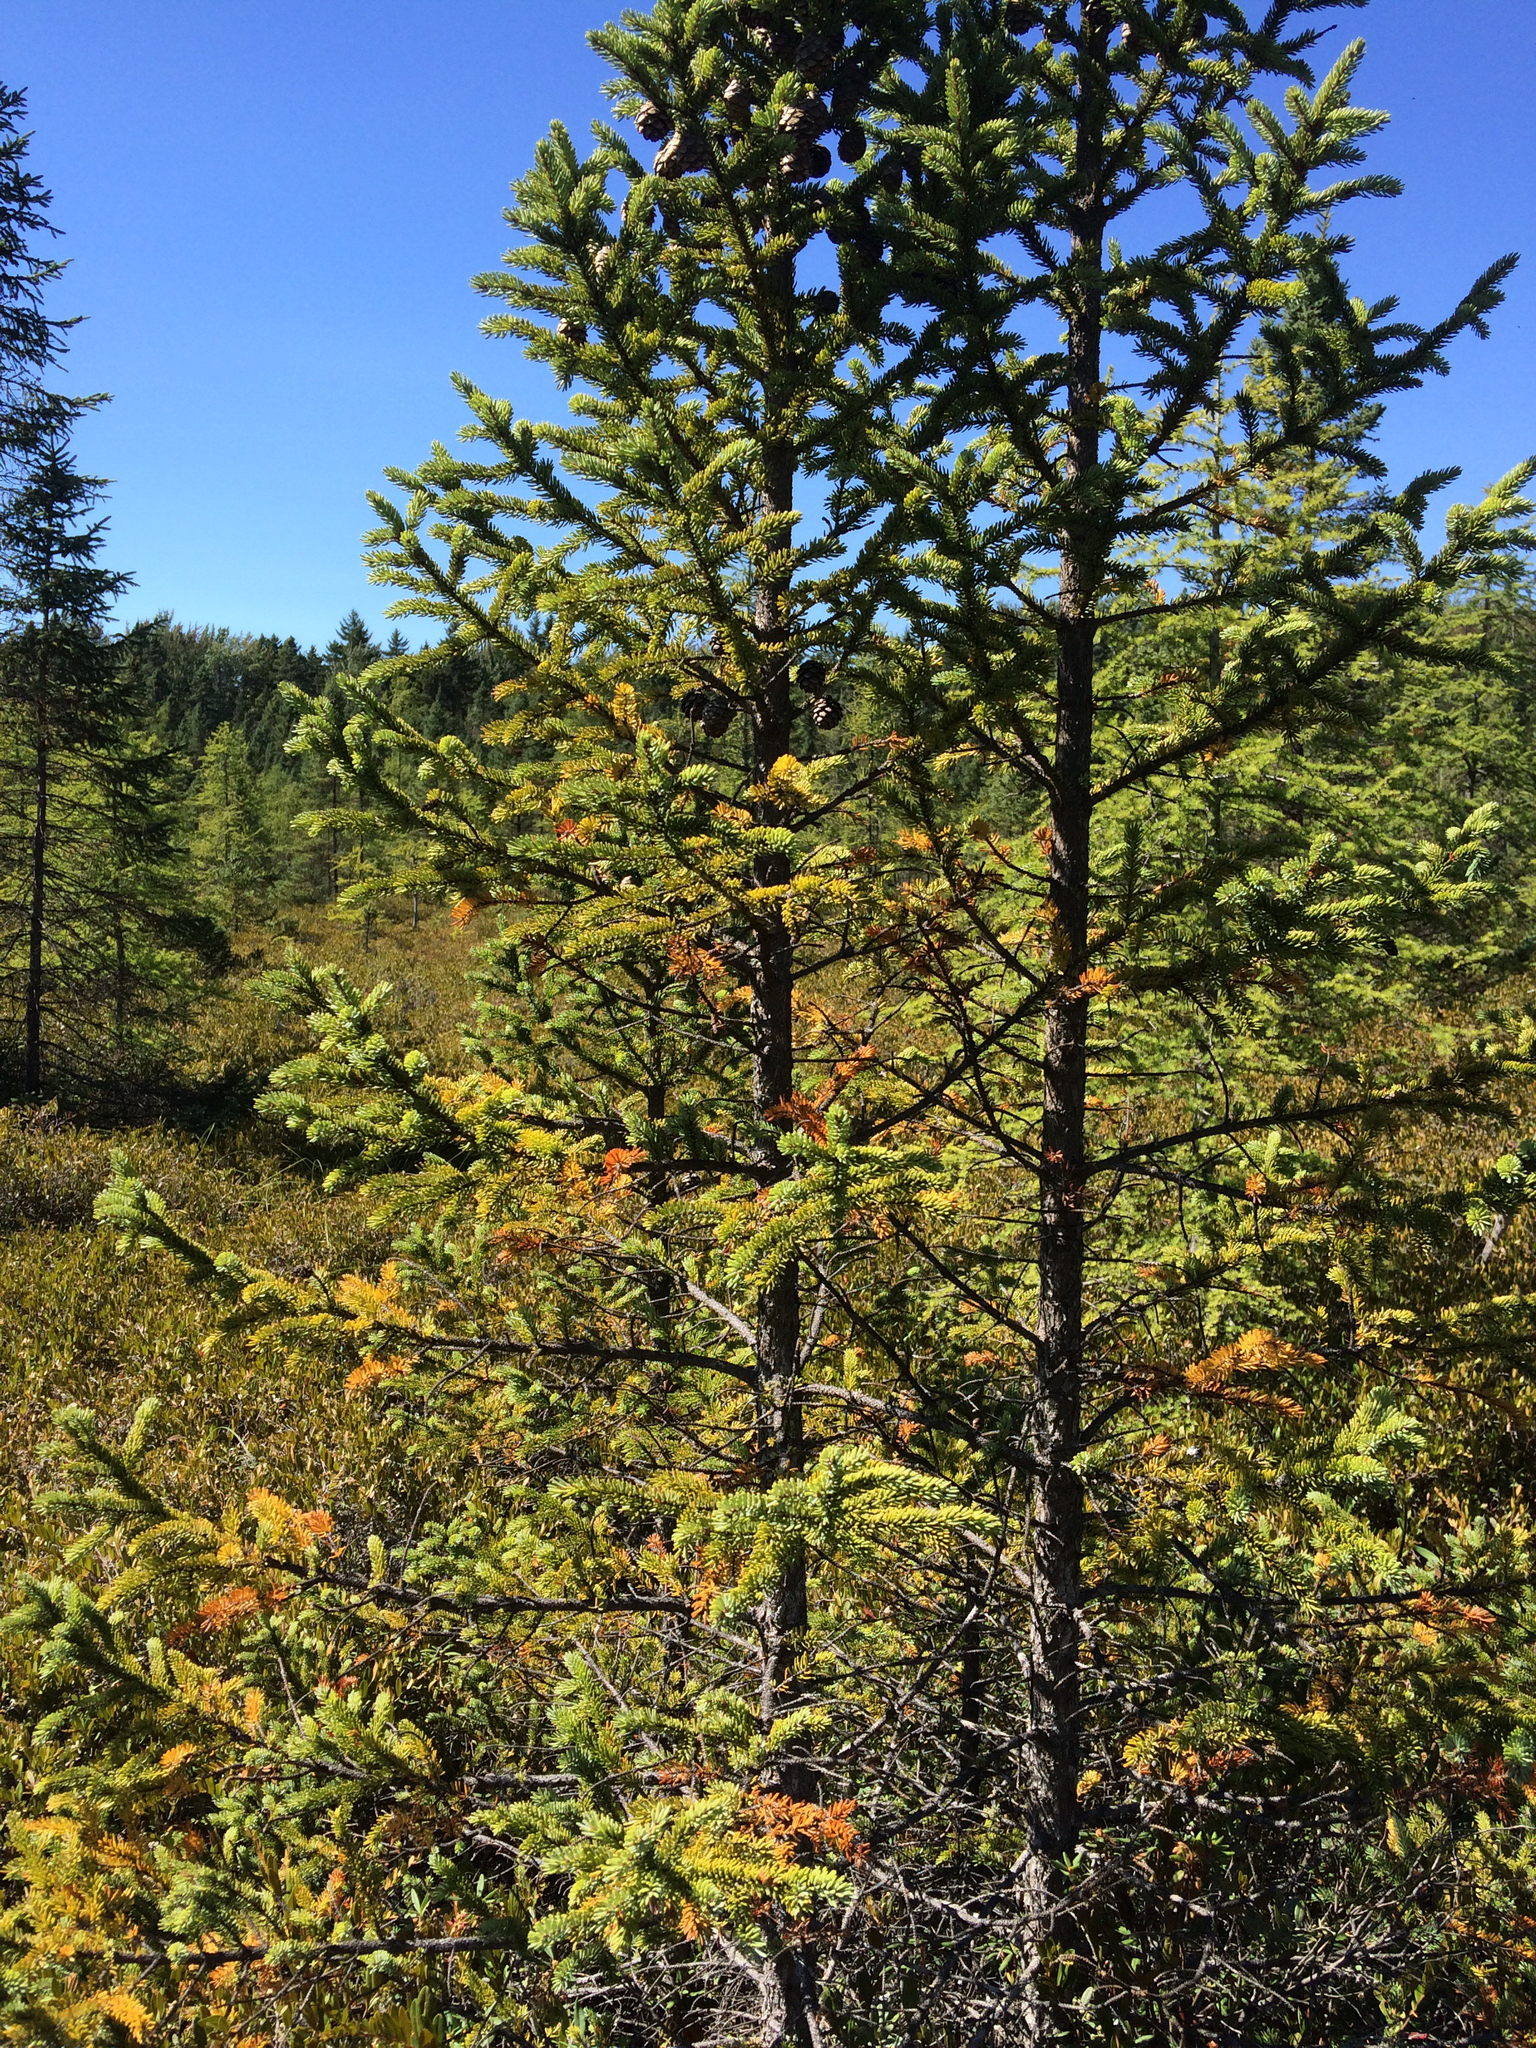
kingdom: Plantae
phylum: Tracheophyta
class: Pinopsida
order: Pinales
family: Pinaceae
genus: Picea
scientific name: Picea mariana
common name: Black spruce
